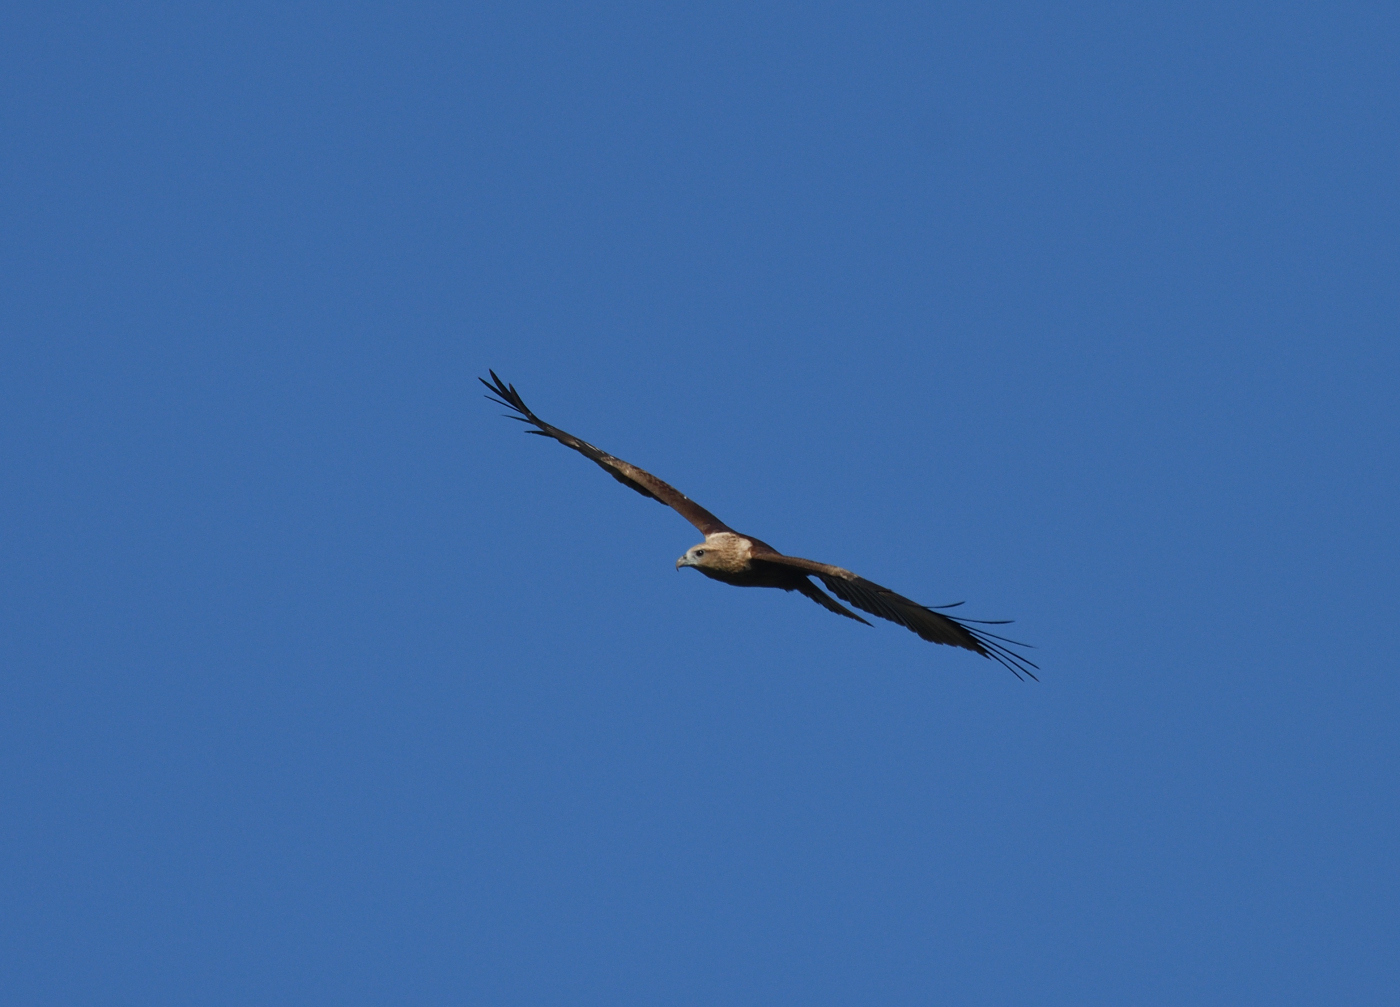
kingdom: Animalia
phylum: Chordata
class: Aves
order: Accipitriformes
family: Accipitridae
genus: Haliastur
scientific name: Haliastur indus
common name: Brahminy kite
